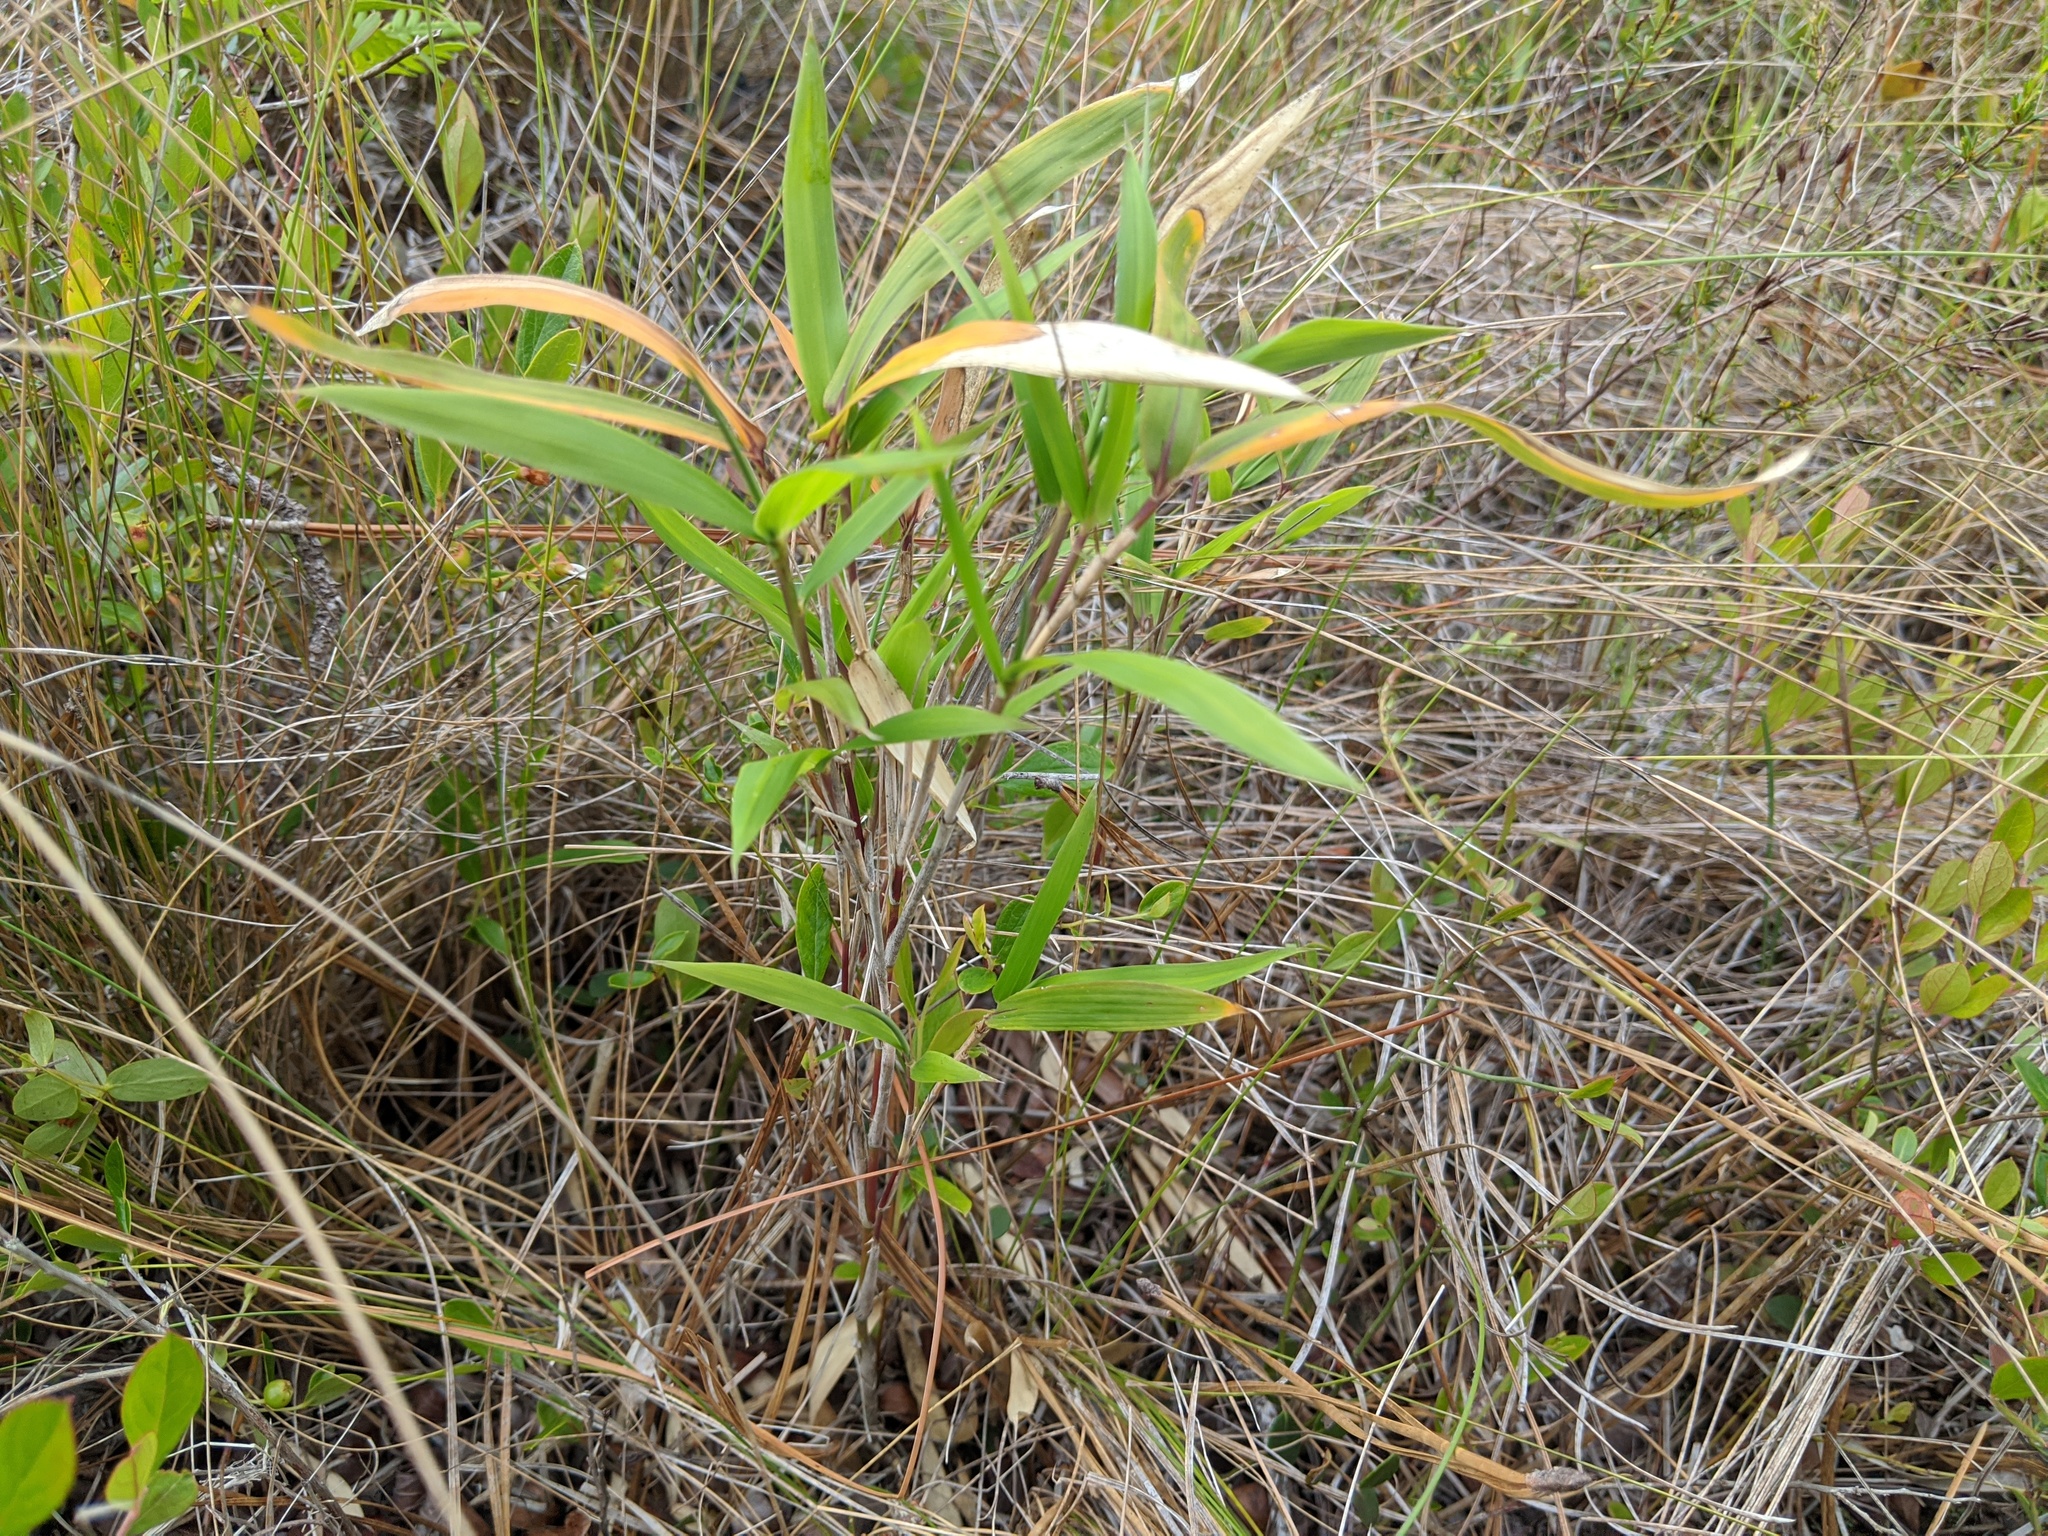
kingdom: Plantae
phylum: Tracheophyta
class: Liliopsida
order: Poales
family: Poaceae
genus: Arundinaria
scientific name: Arundinaria tecta
